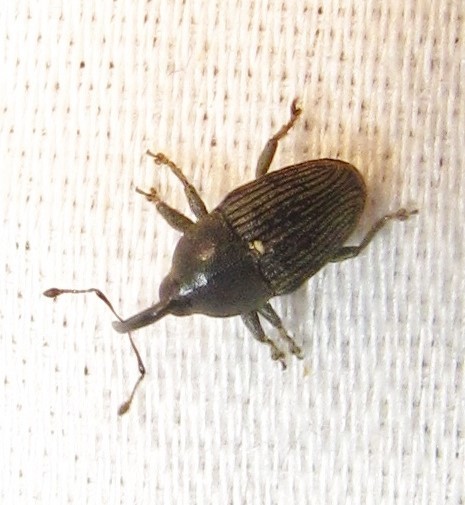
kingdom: Animalia
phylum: Arthropoda
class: Insecta
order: Coleoptera
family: Curculionidae
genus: Odontocorynus
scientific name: Odontocorynus salebrosus
